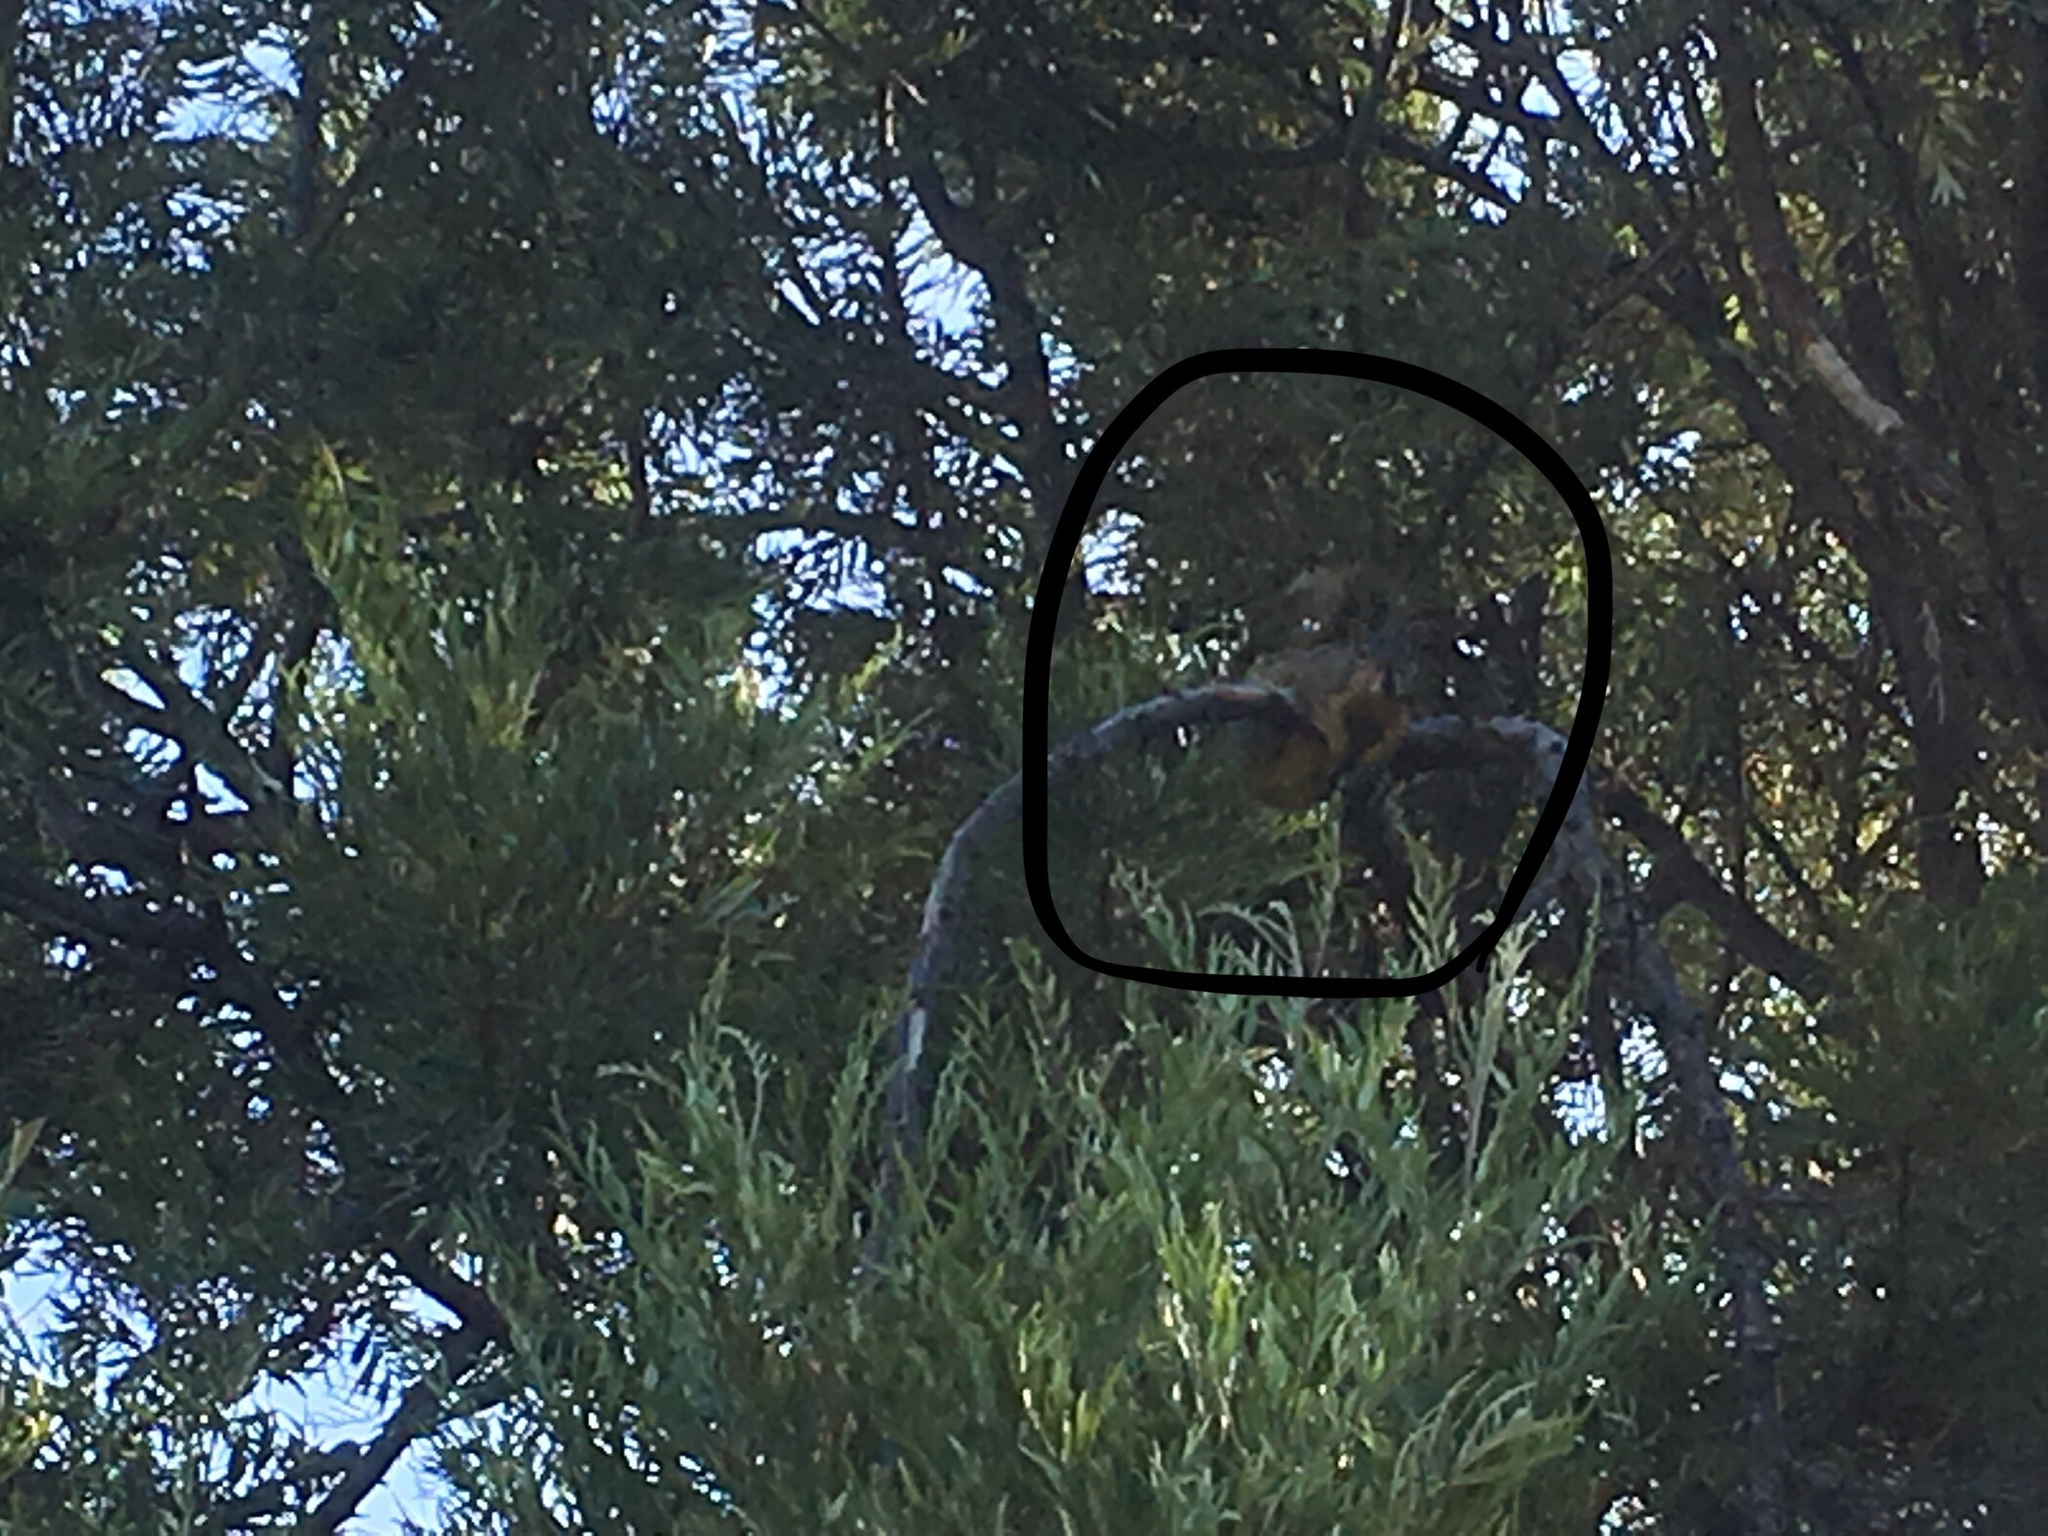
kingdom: Animalia
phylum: Chordata
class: Mammalia
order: Rodentia
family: Sciuridae
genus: Sciurus
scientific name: Sciurus niger
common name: Fox squirrel
